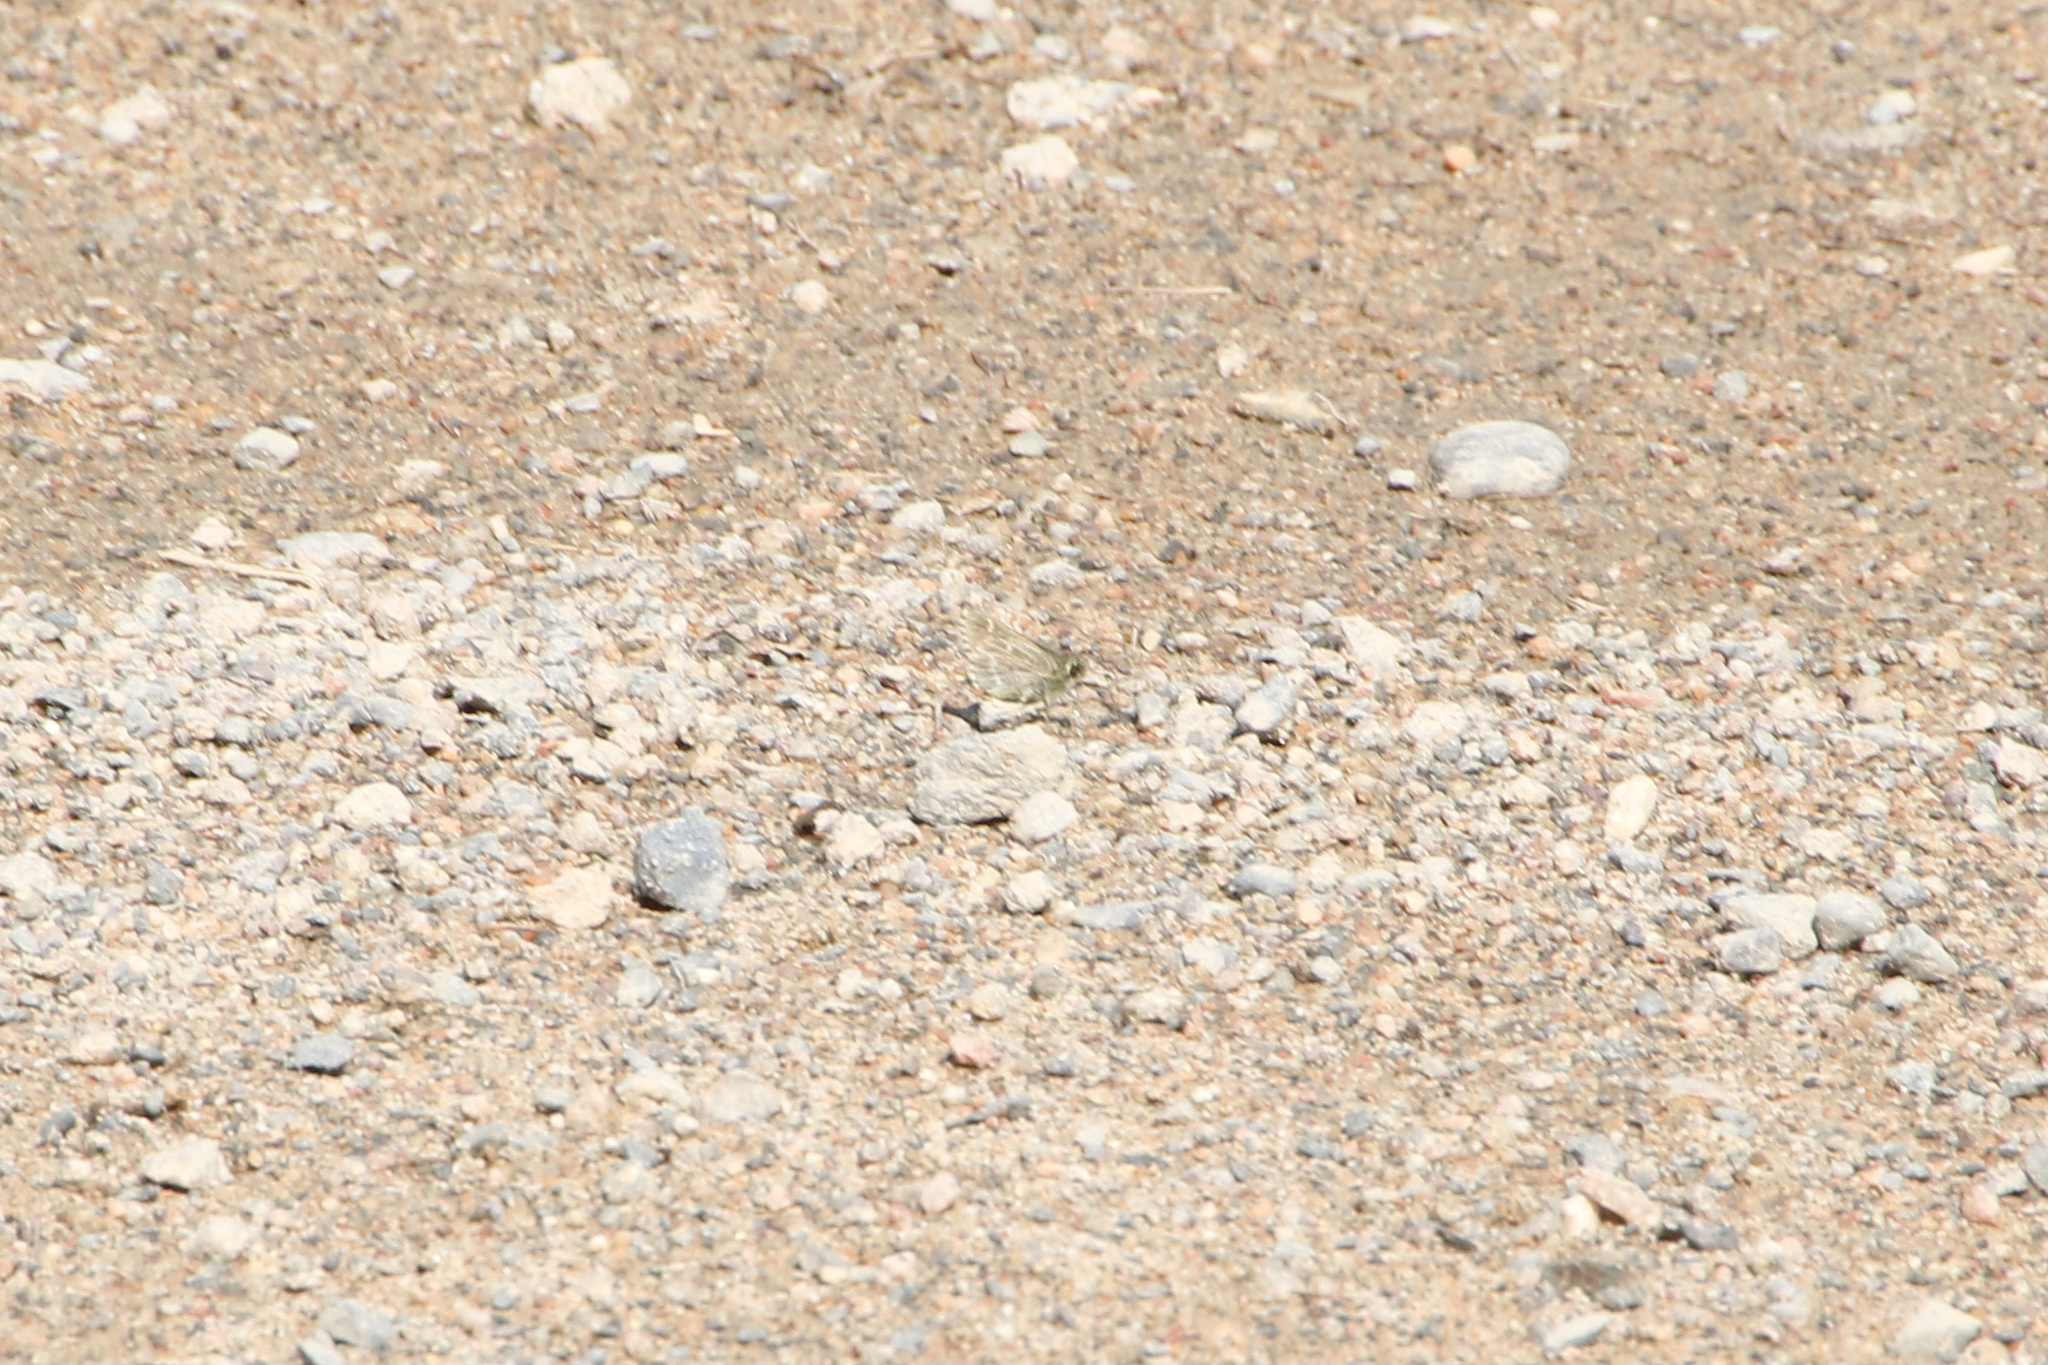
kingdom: Animalia
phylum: Arthropoda
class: Insecta
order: Lepidoptera
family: Hesperiidae
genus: Mastor
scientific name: Mastor hegon
